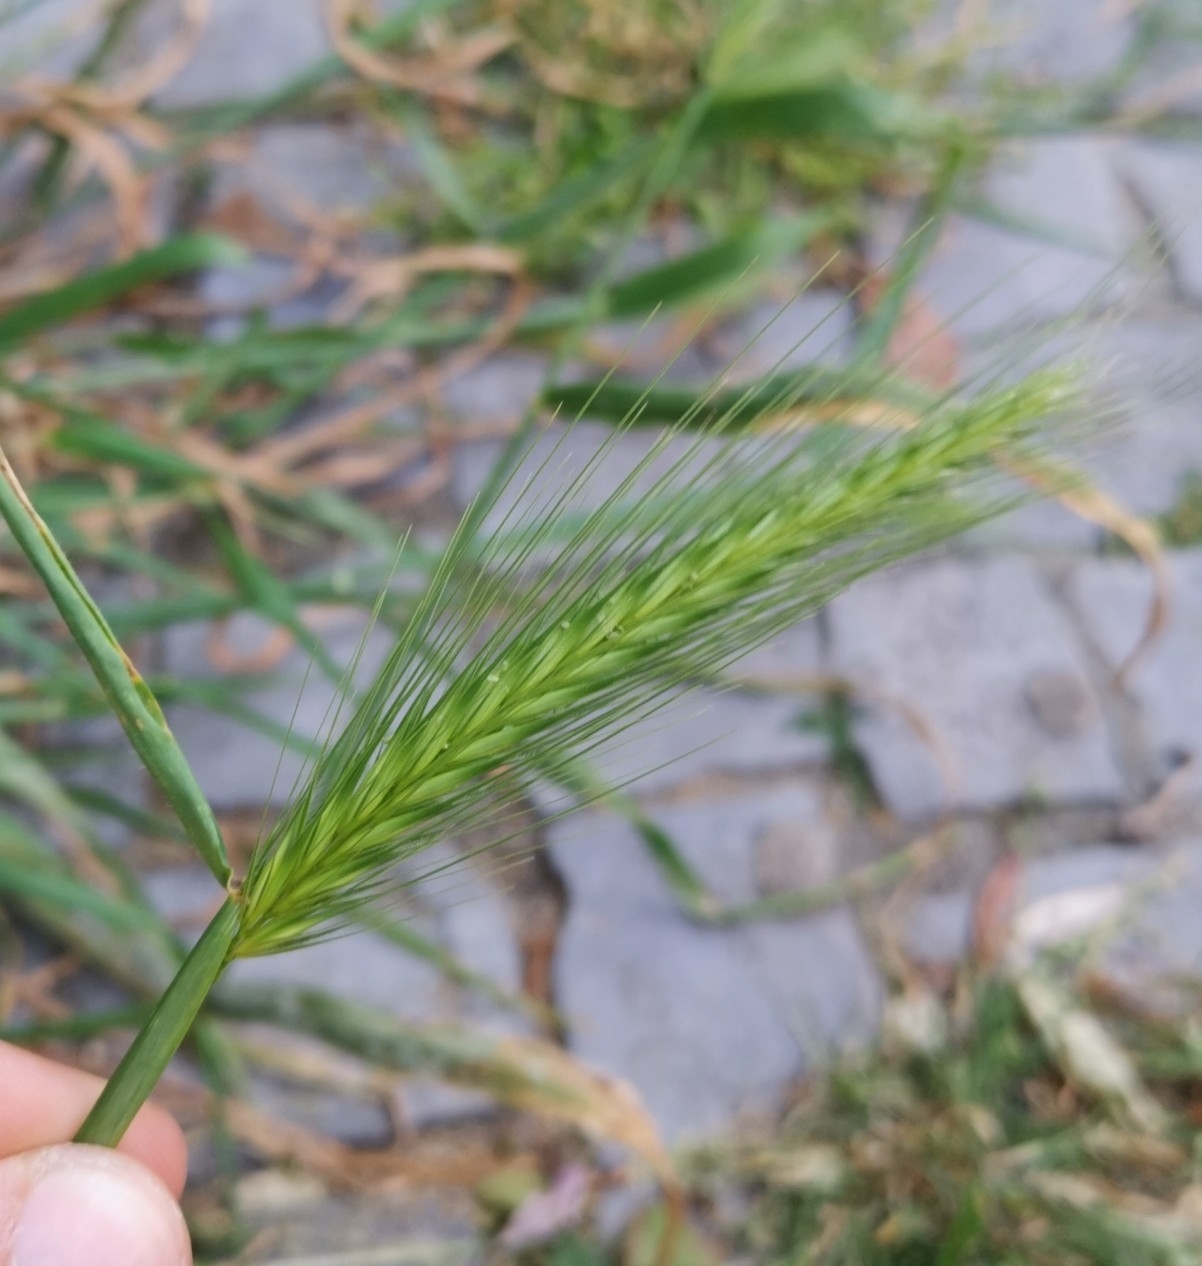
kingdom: Plantae
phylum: Tracheophyta
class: Liliopsida
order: Poales
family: Poaceae
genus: Hordeum
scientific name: Hordeum murinum
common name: Wall barley
